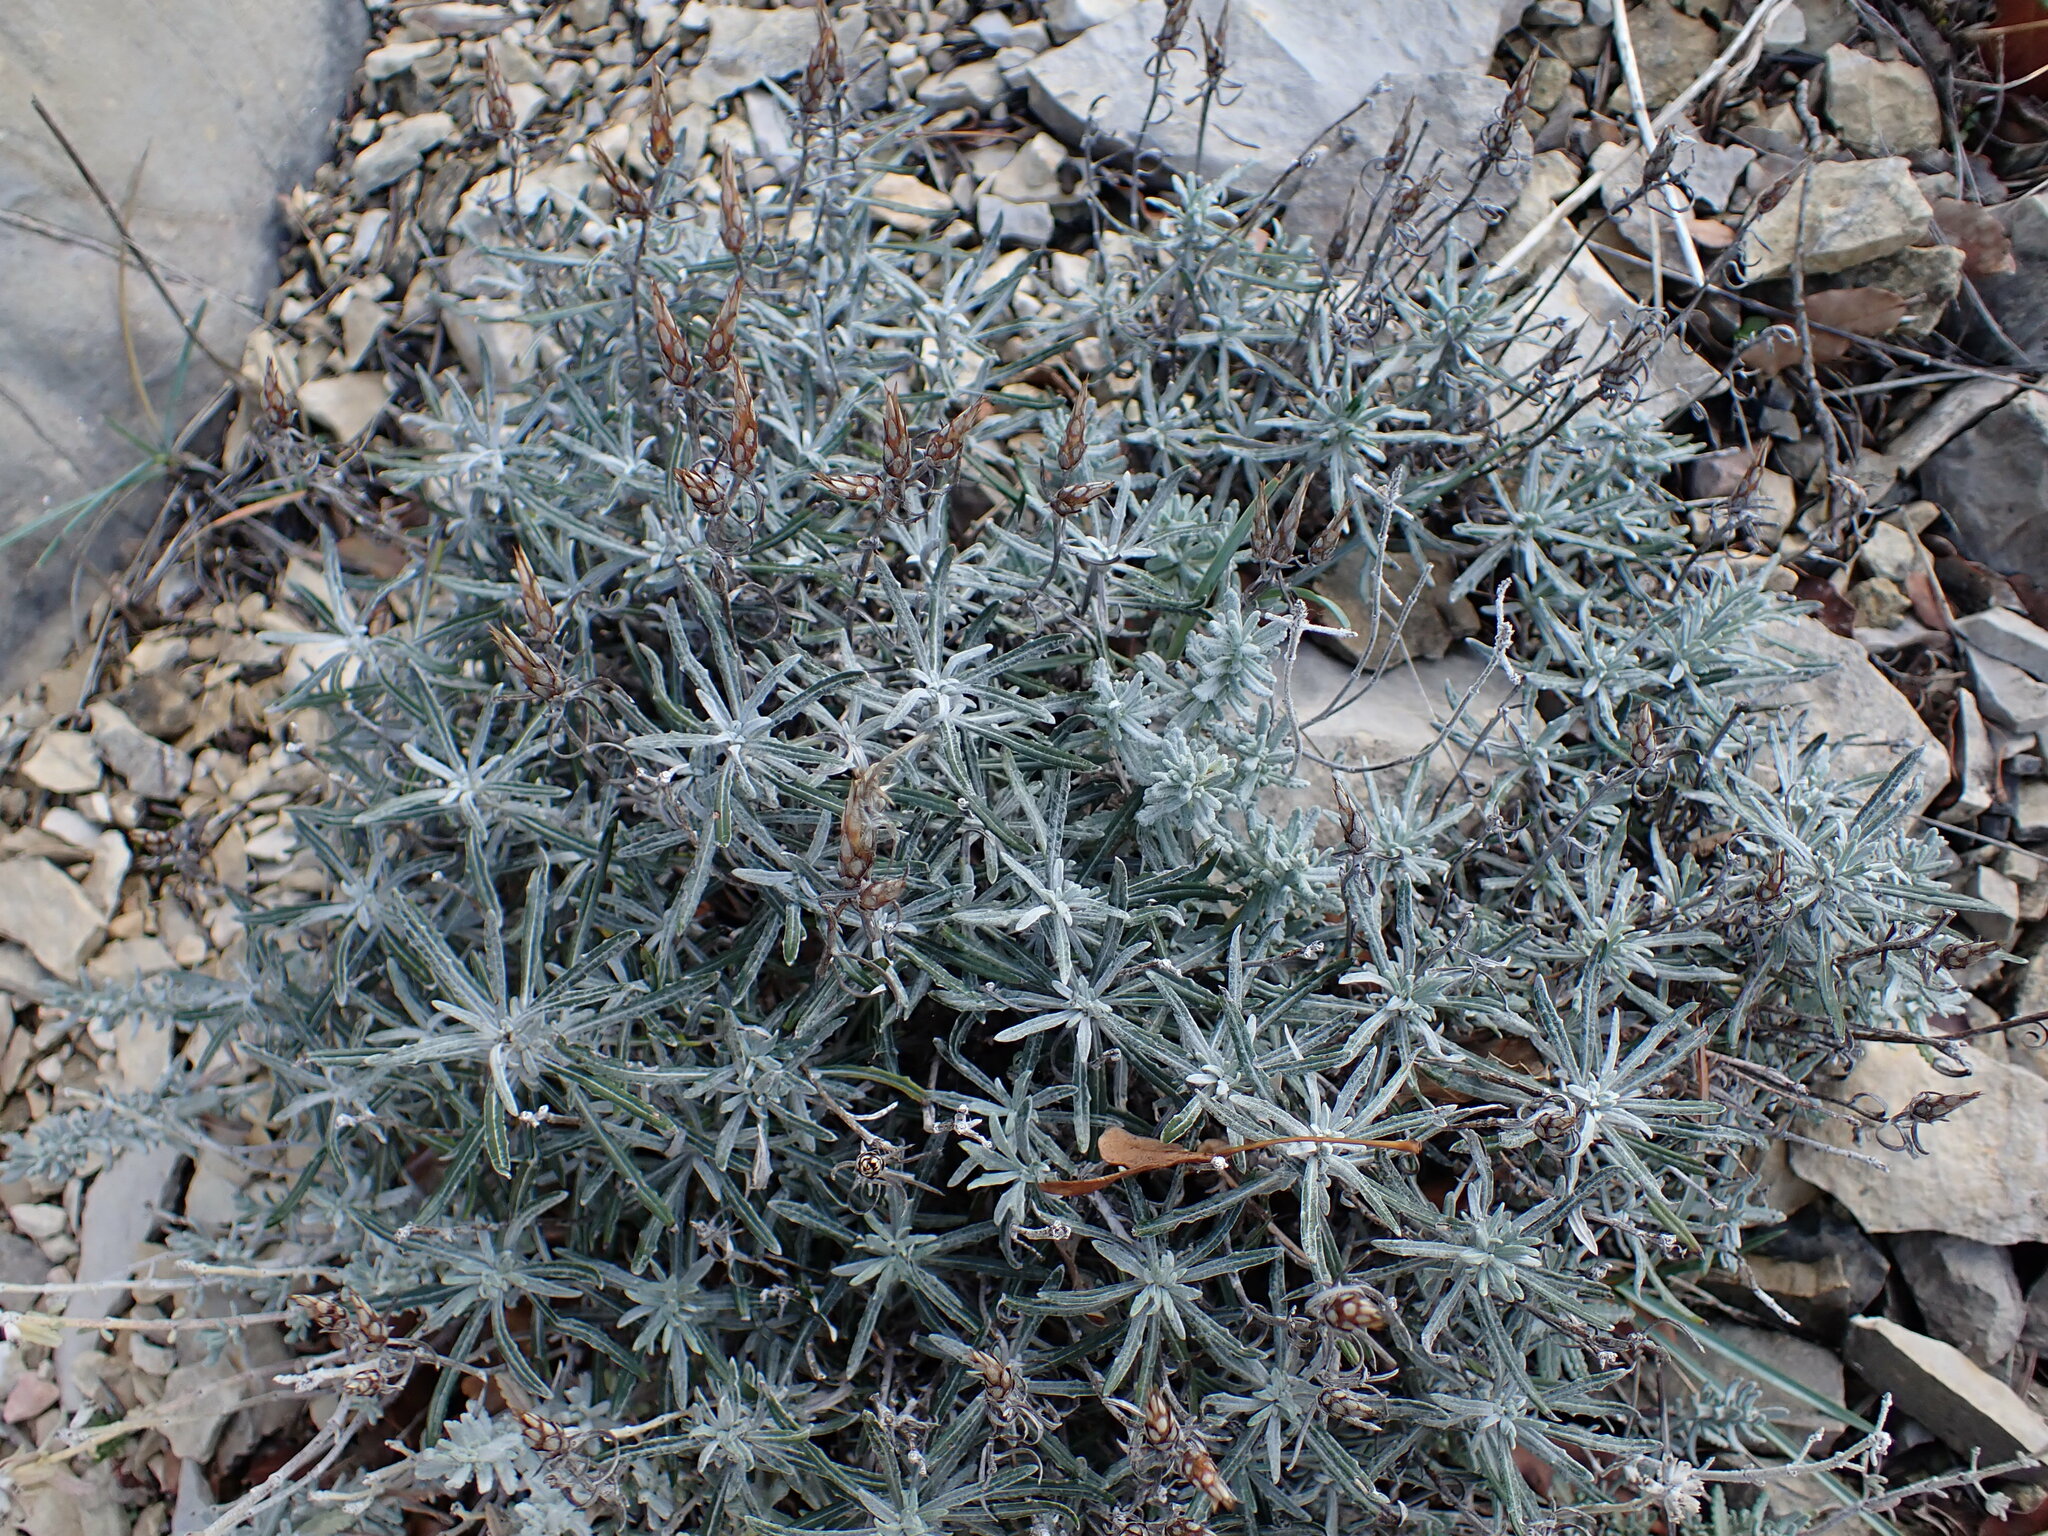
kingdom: Plantae
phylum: Tracheophyta
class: Magnoliopsida
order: Asterales
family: Asteraceae
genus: Staehelina
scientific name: Staehelina dubia
